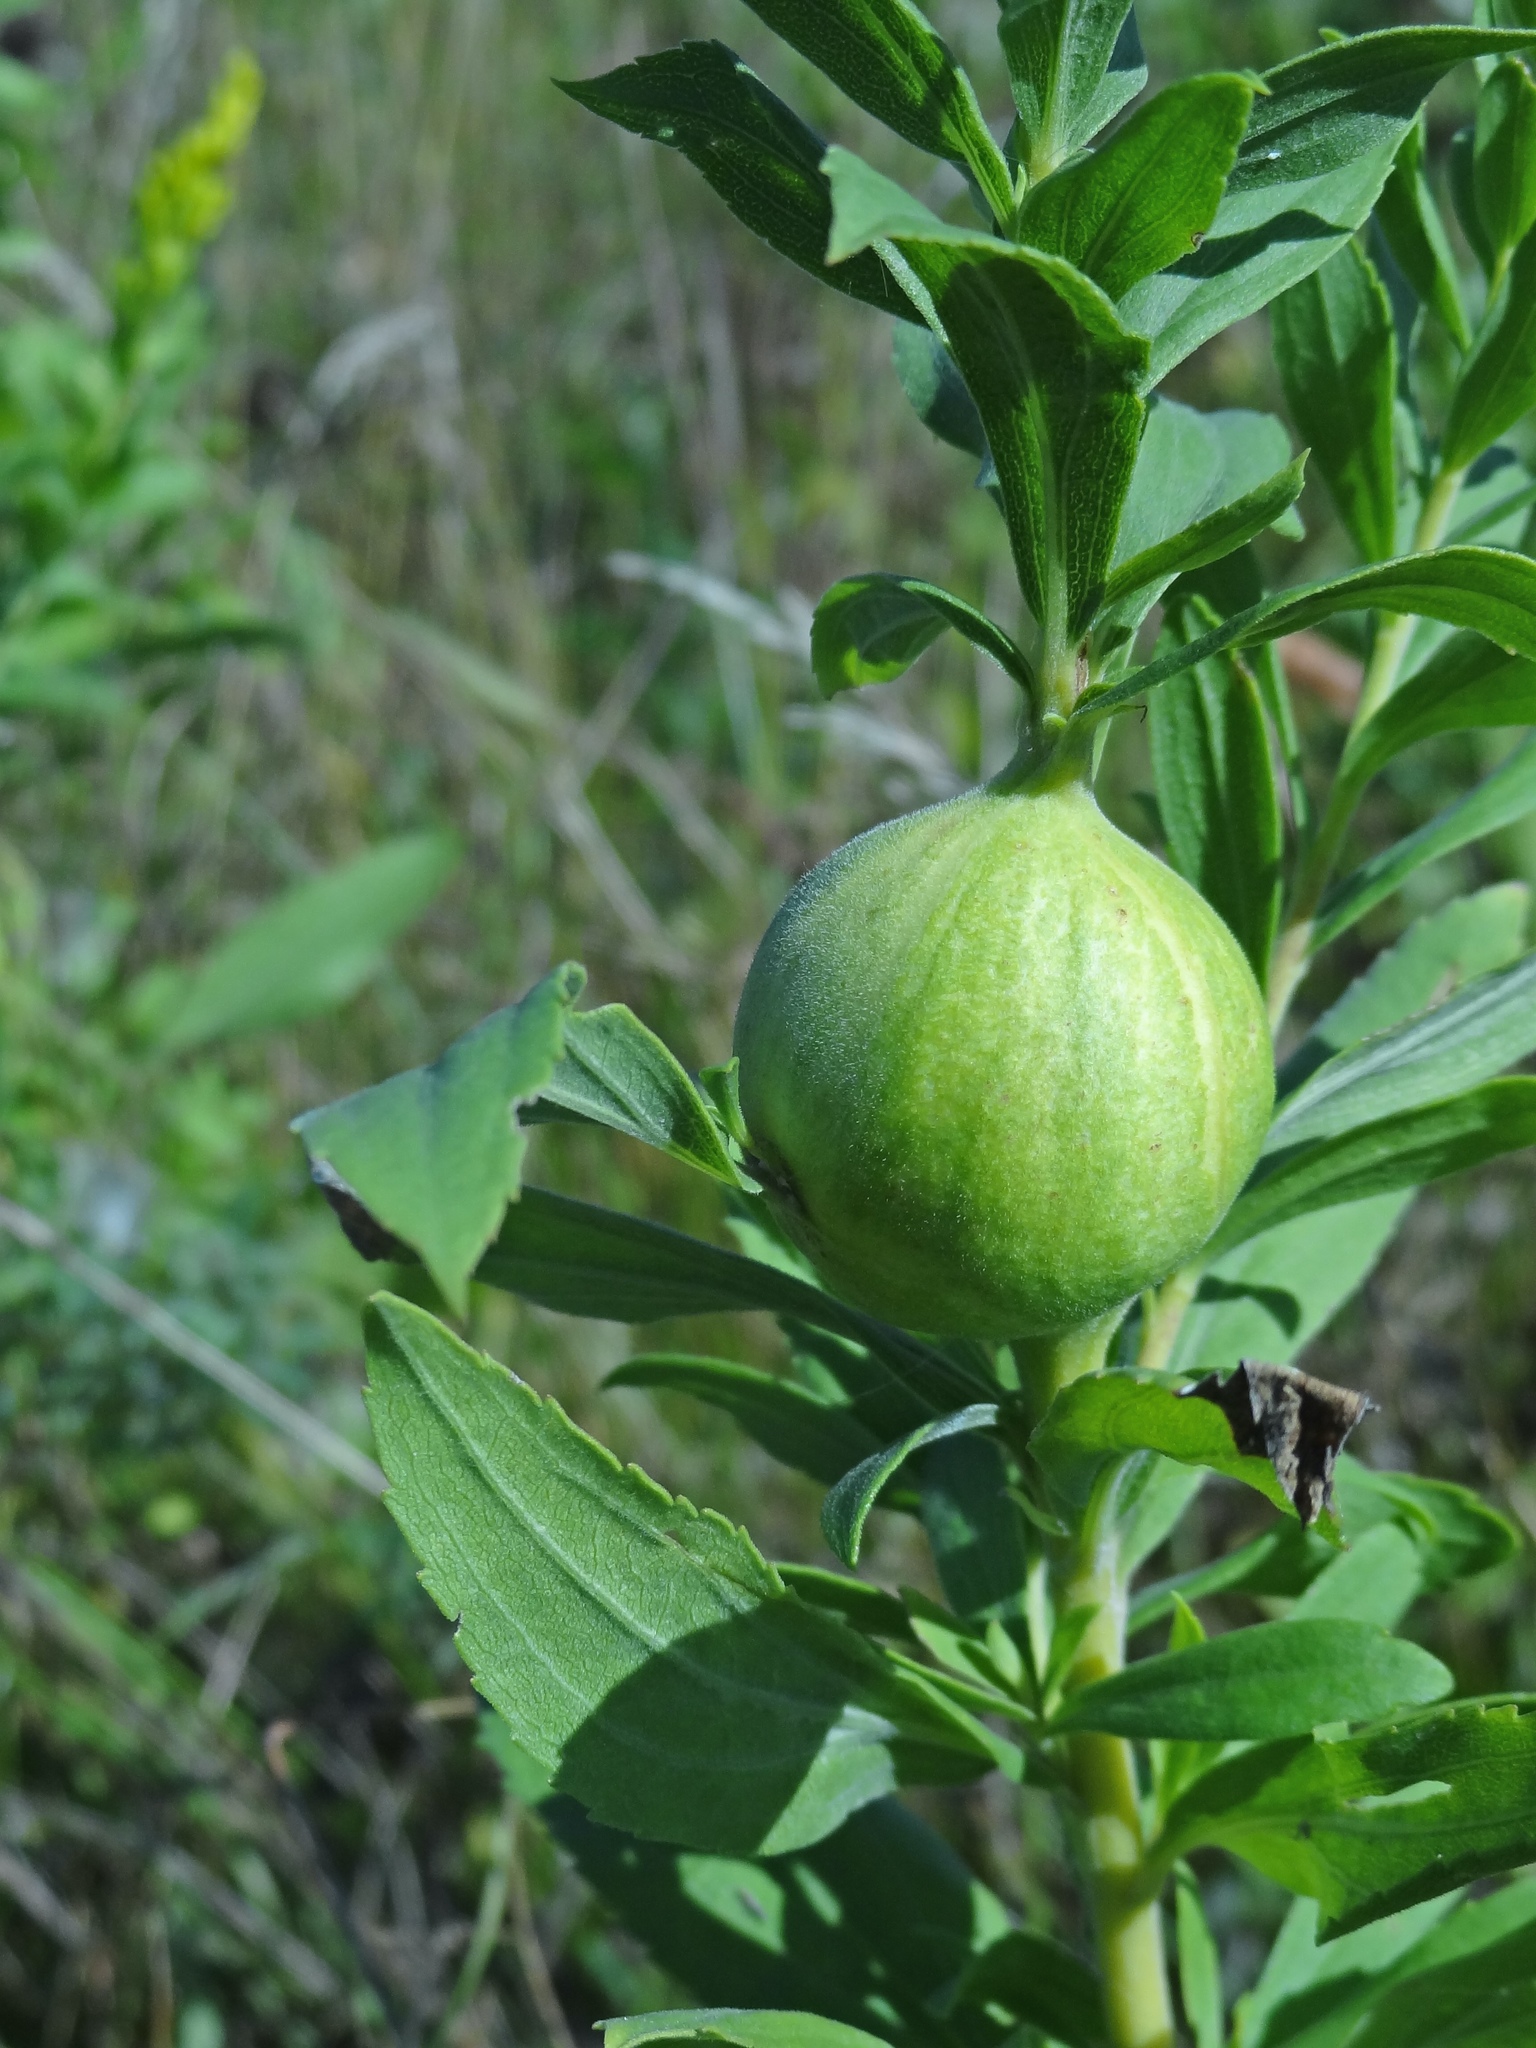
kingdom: Animalia
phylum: Arthropoda
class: Insecta
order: Diptera
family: Tephritidae
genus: Eurosta
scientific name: Eurosta solidaginis
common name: Goldenrod gall fly
